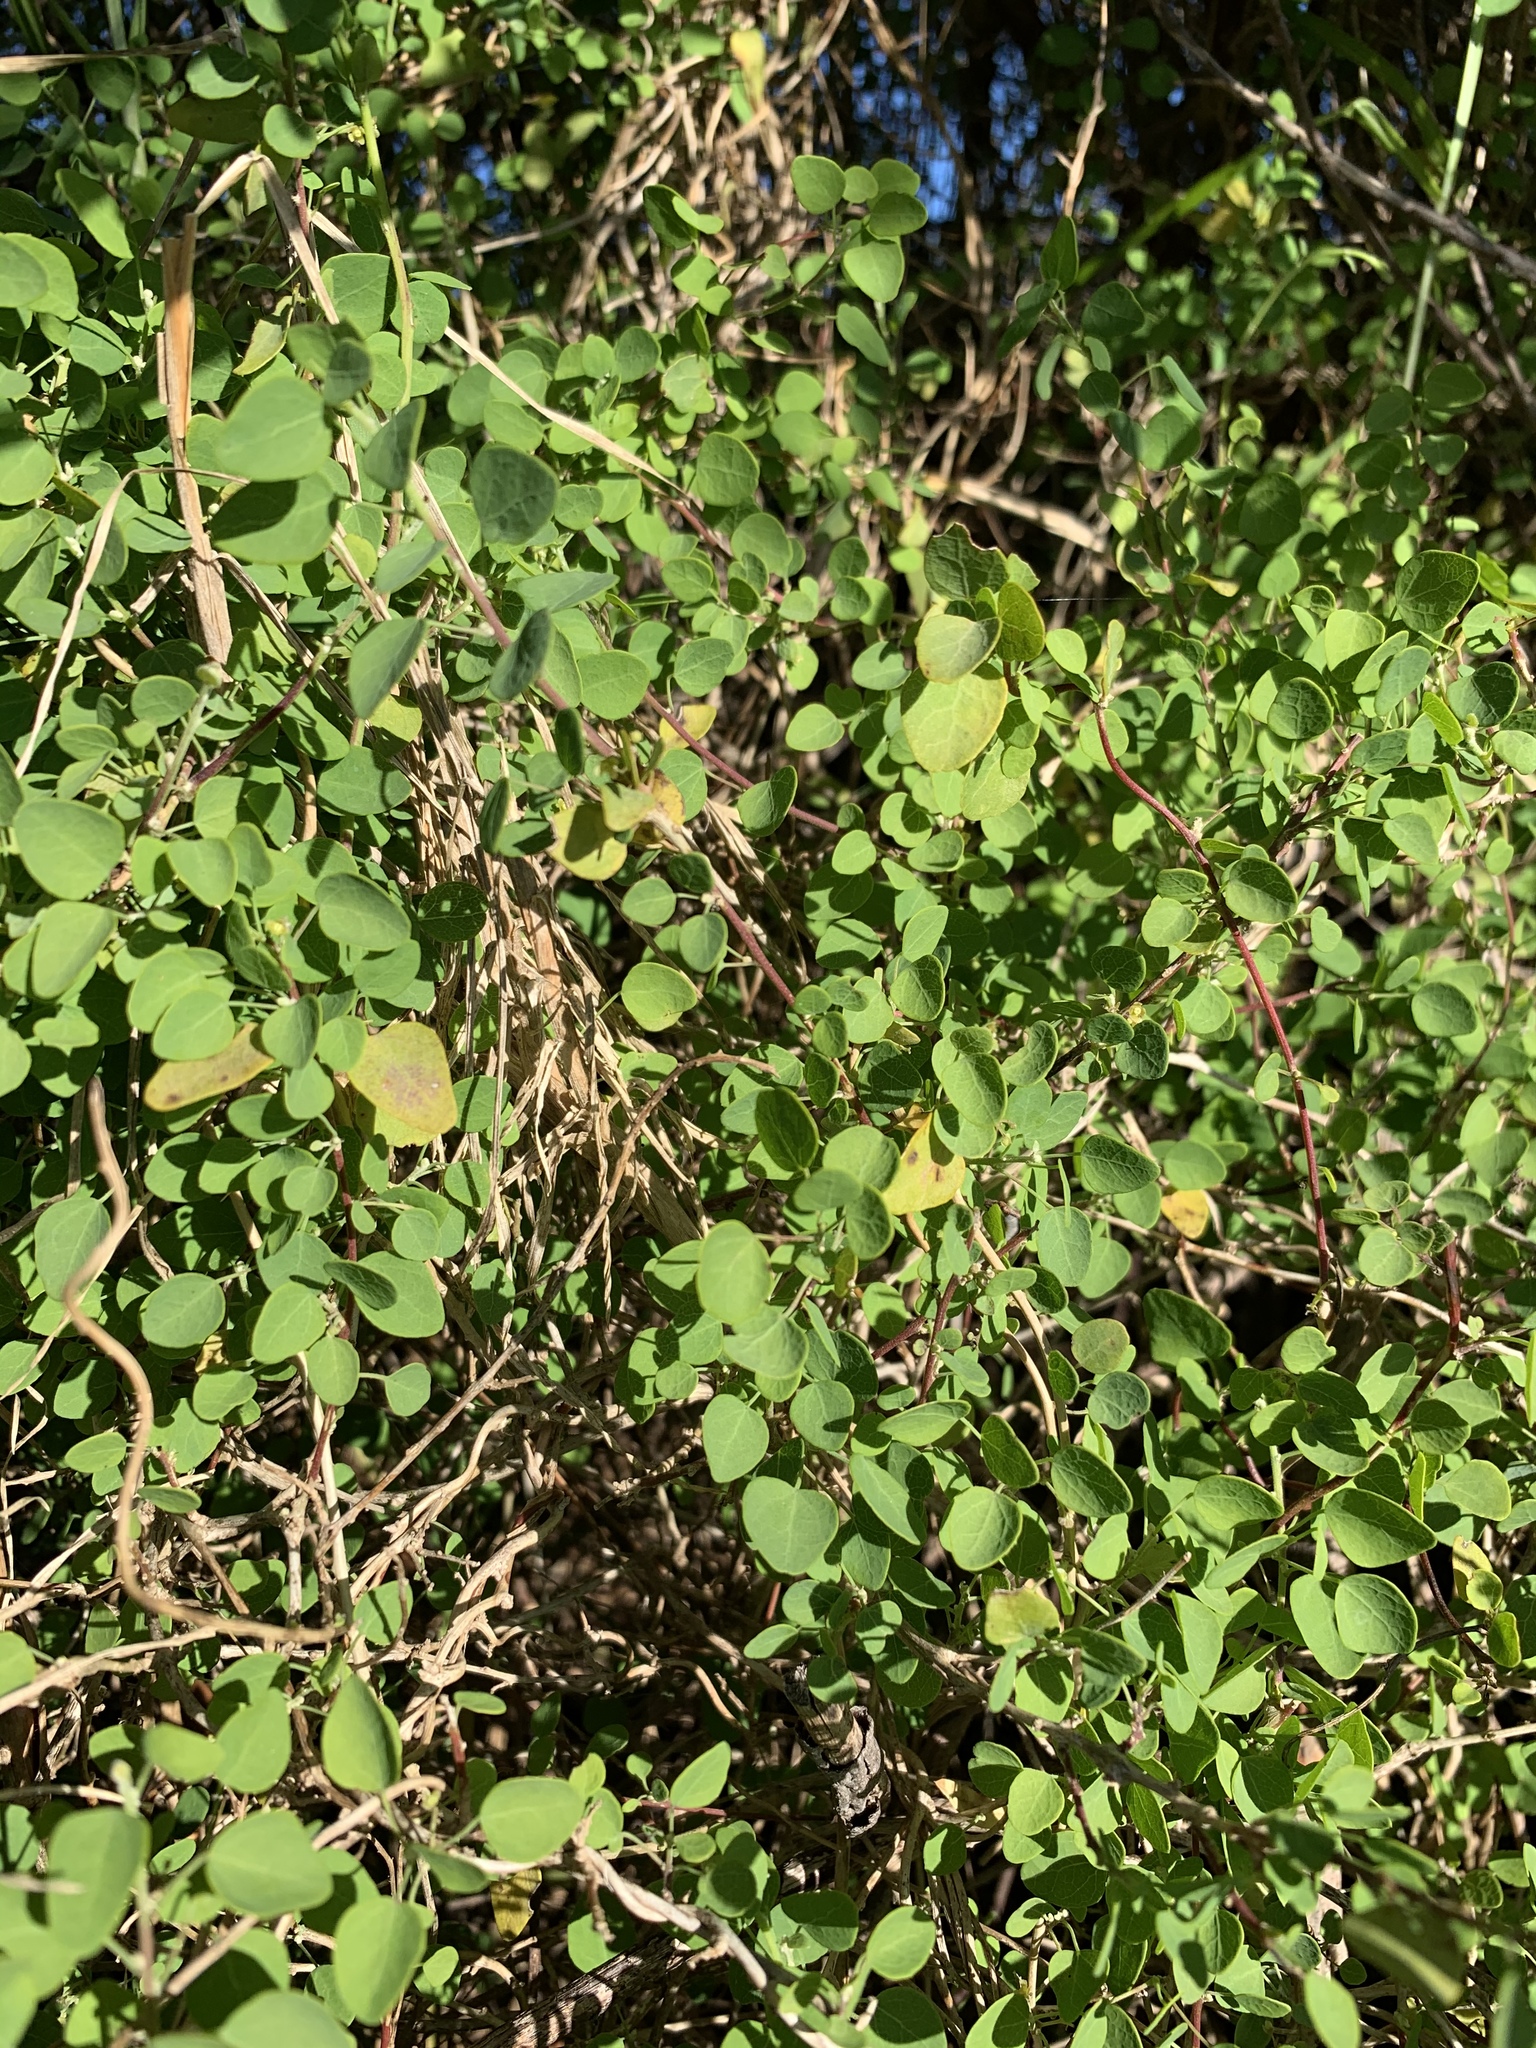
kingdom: Plantae
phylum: Tracheophyta
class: Magnoliopsida
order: Ranunculales
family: Menispermaceae
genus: Cissampelos
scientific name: Cissampelos capensis
